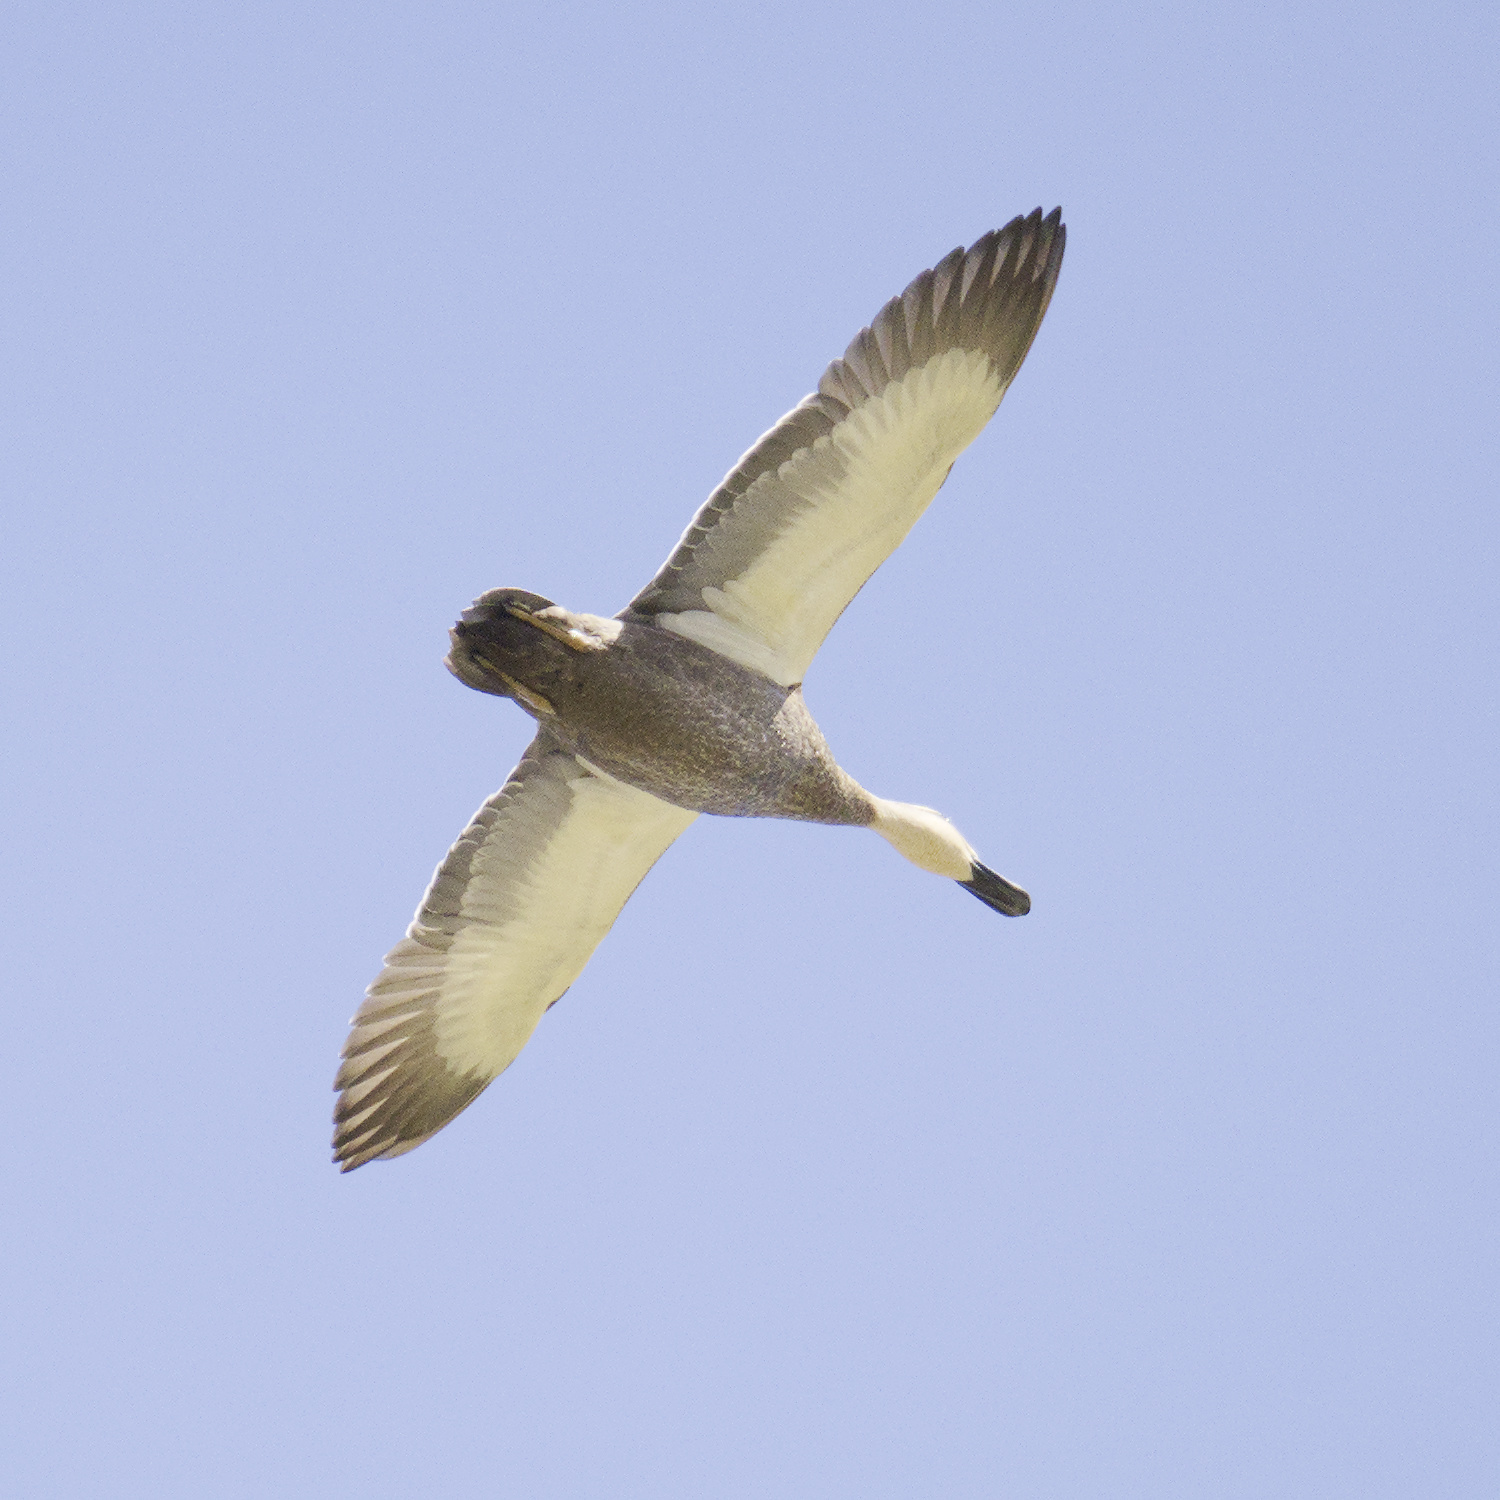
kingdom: Animalia
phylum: Chordata
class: Aves
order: Anseriformes
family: Anatidae
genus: Anas
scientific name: Anas superciliosa
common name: Pacific black duck
